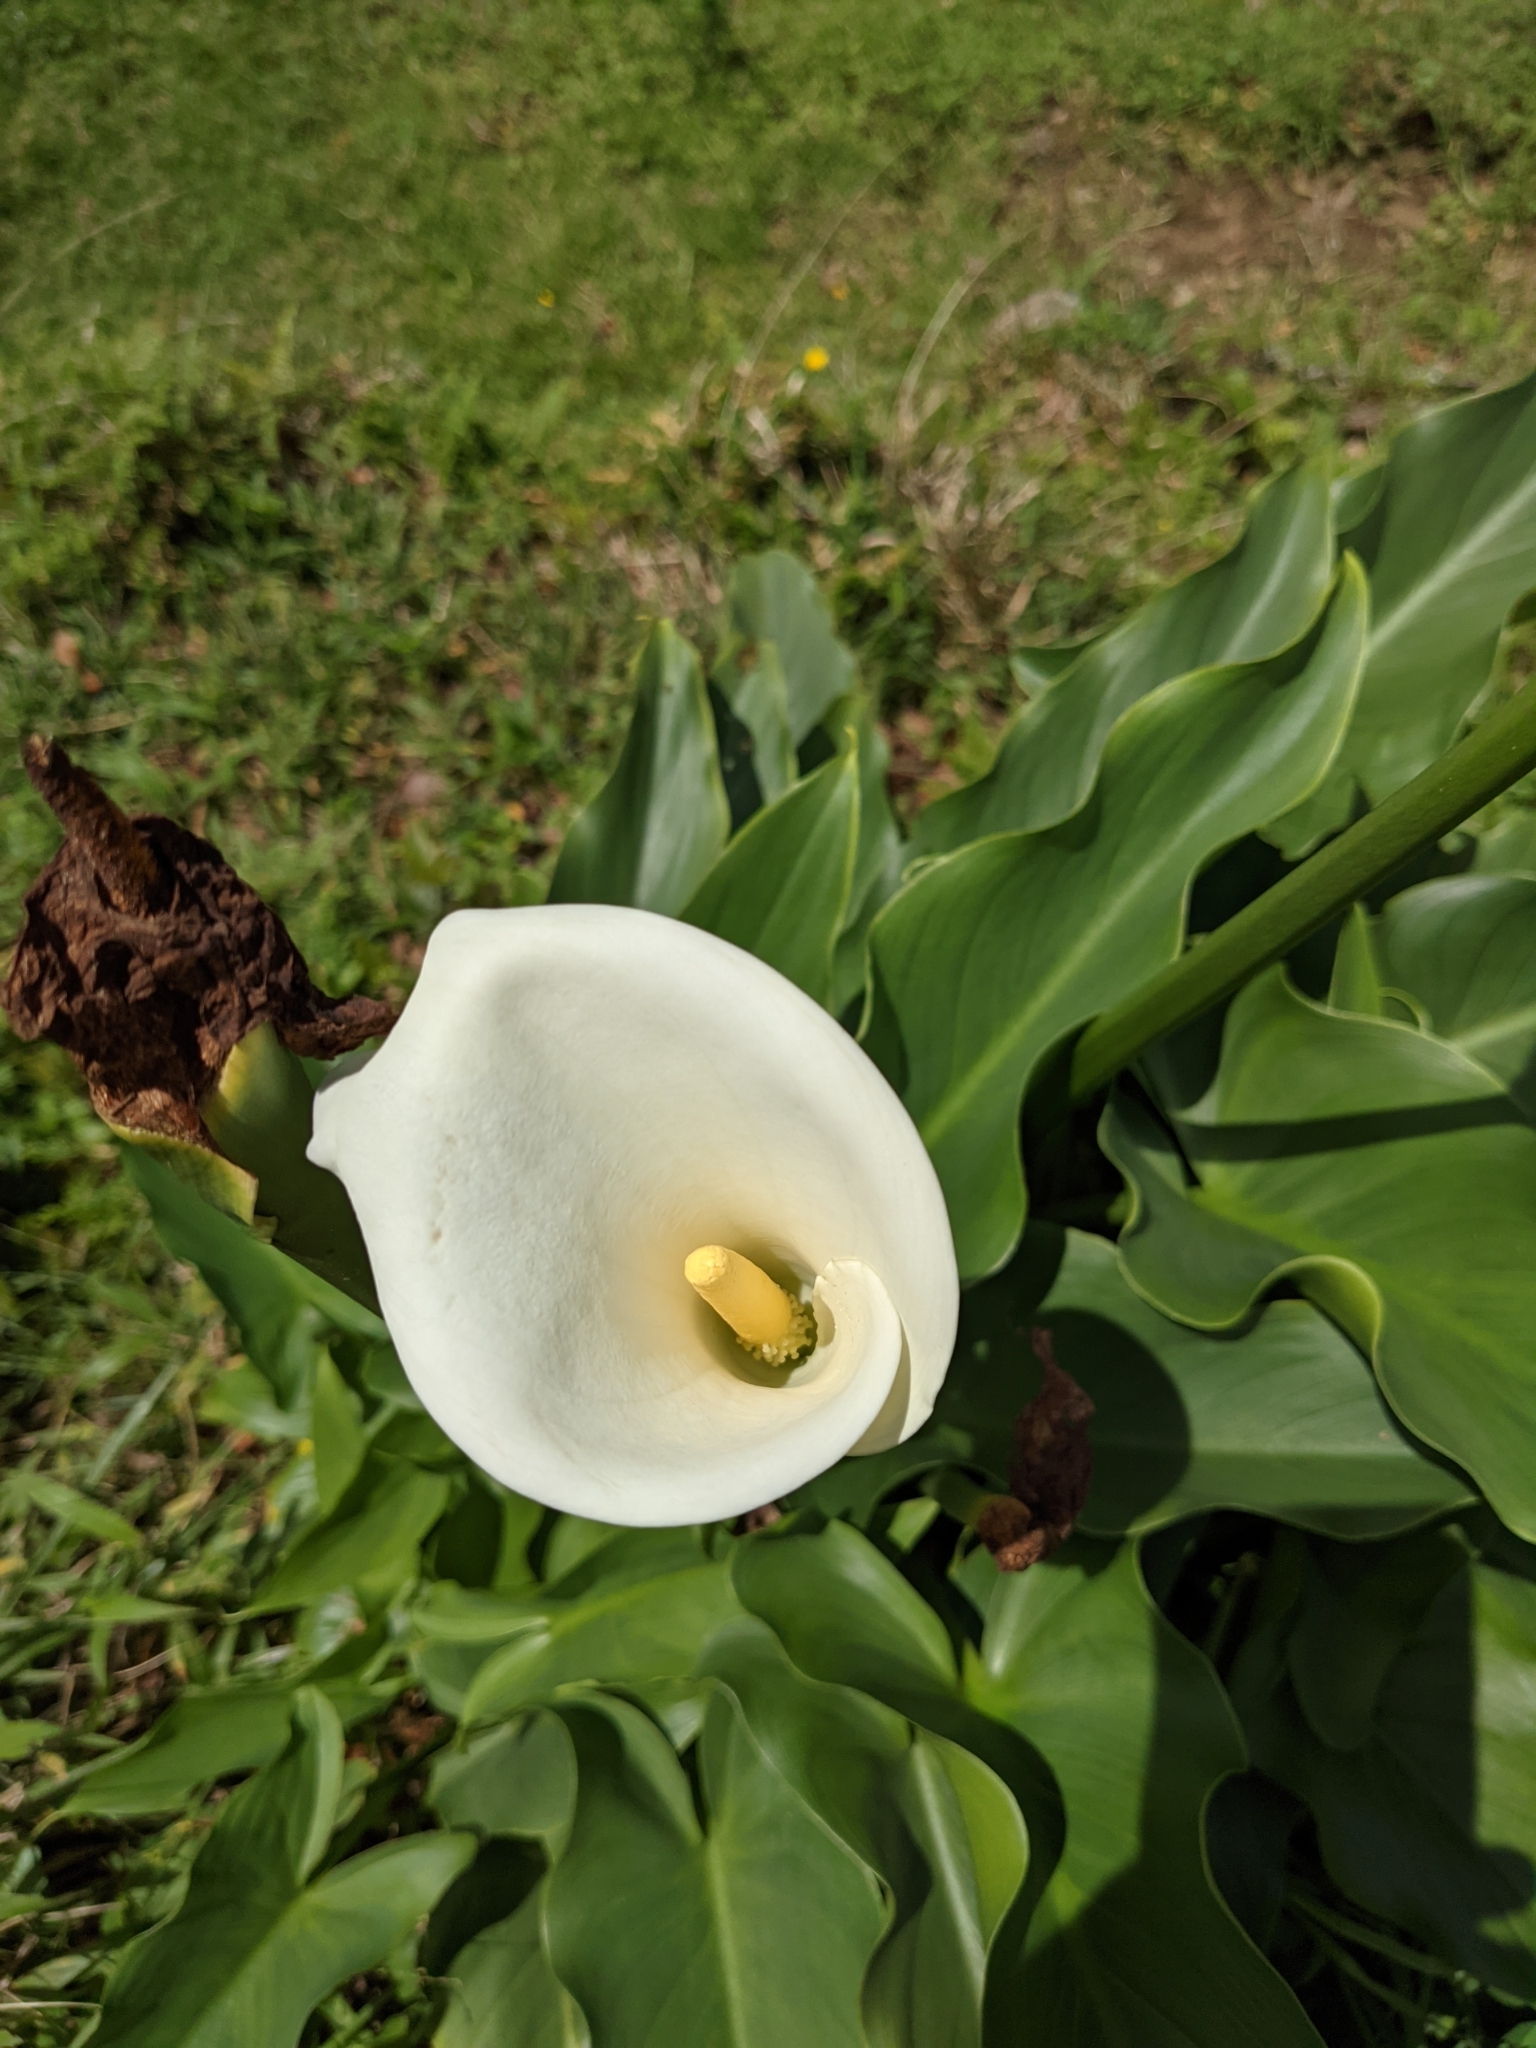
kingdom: Plantae
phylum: Tracheophyta
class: Liliopsida
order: Alismatales
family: Araceae
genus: Zantedeschia
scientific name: Zantedeschia aethiopica
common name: Altar-lily
